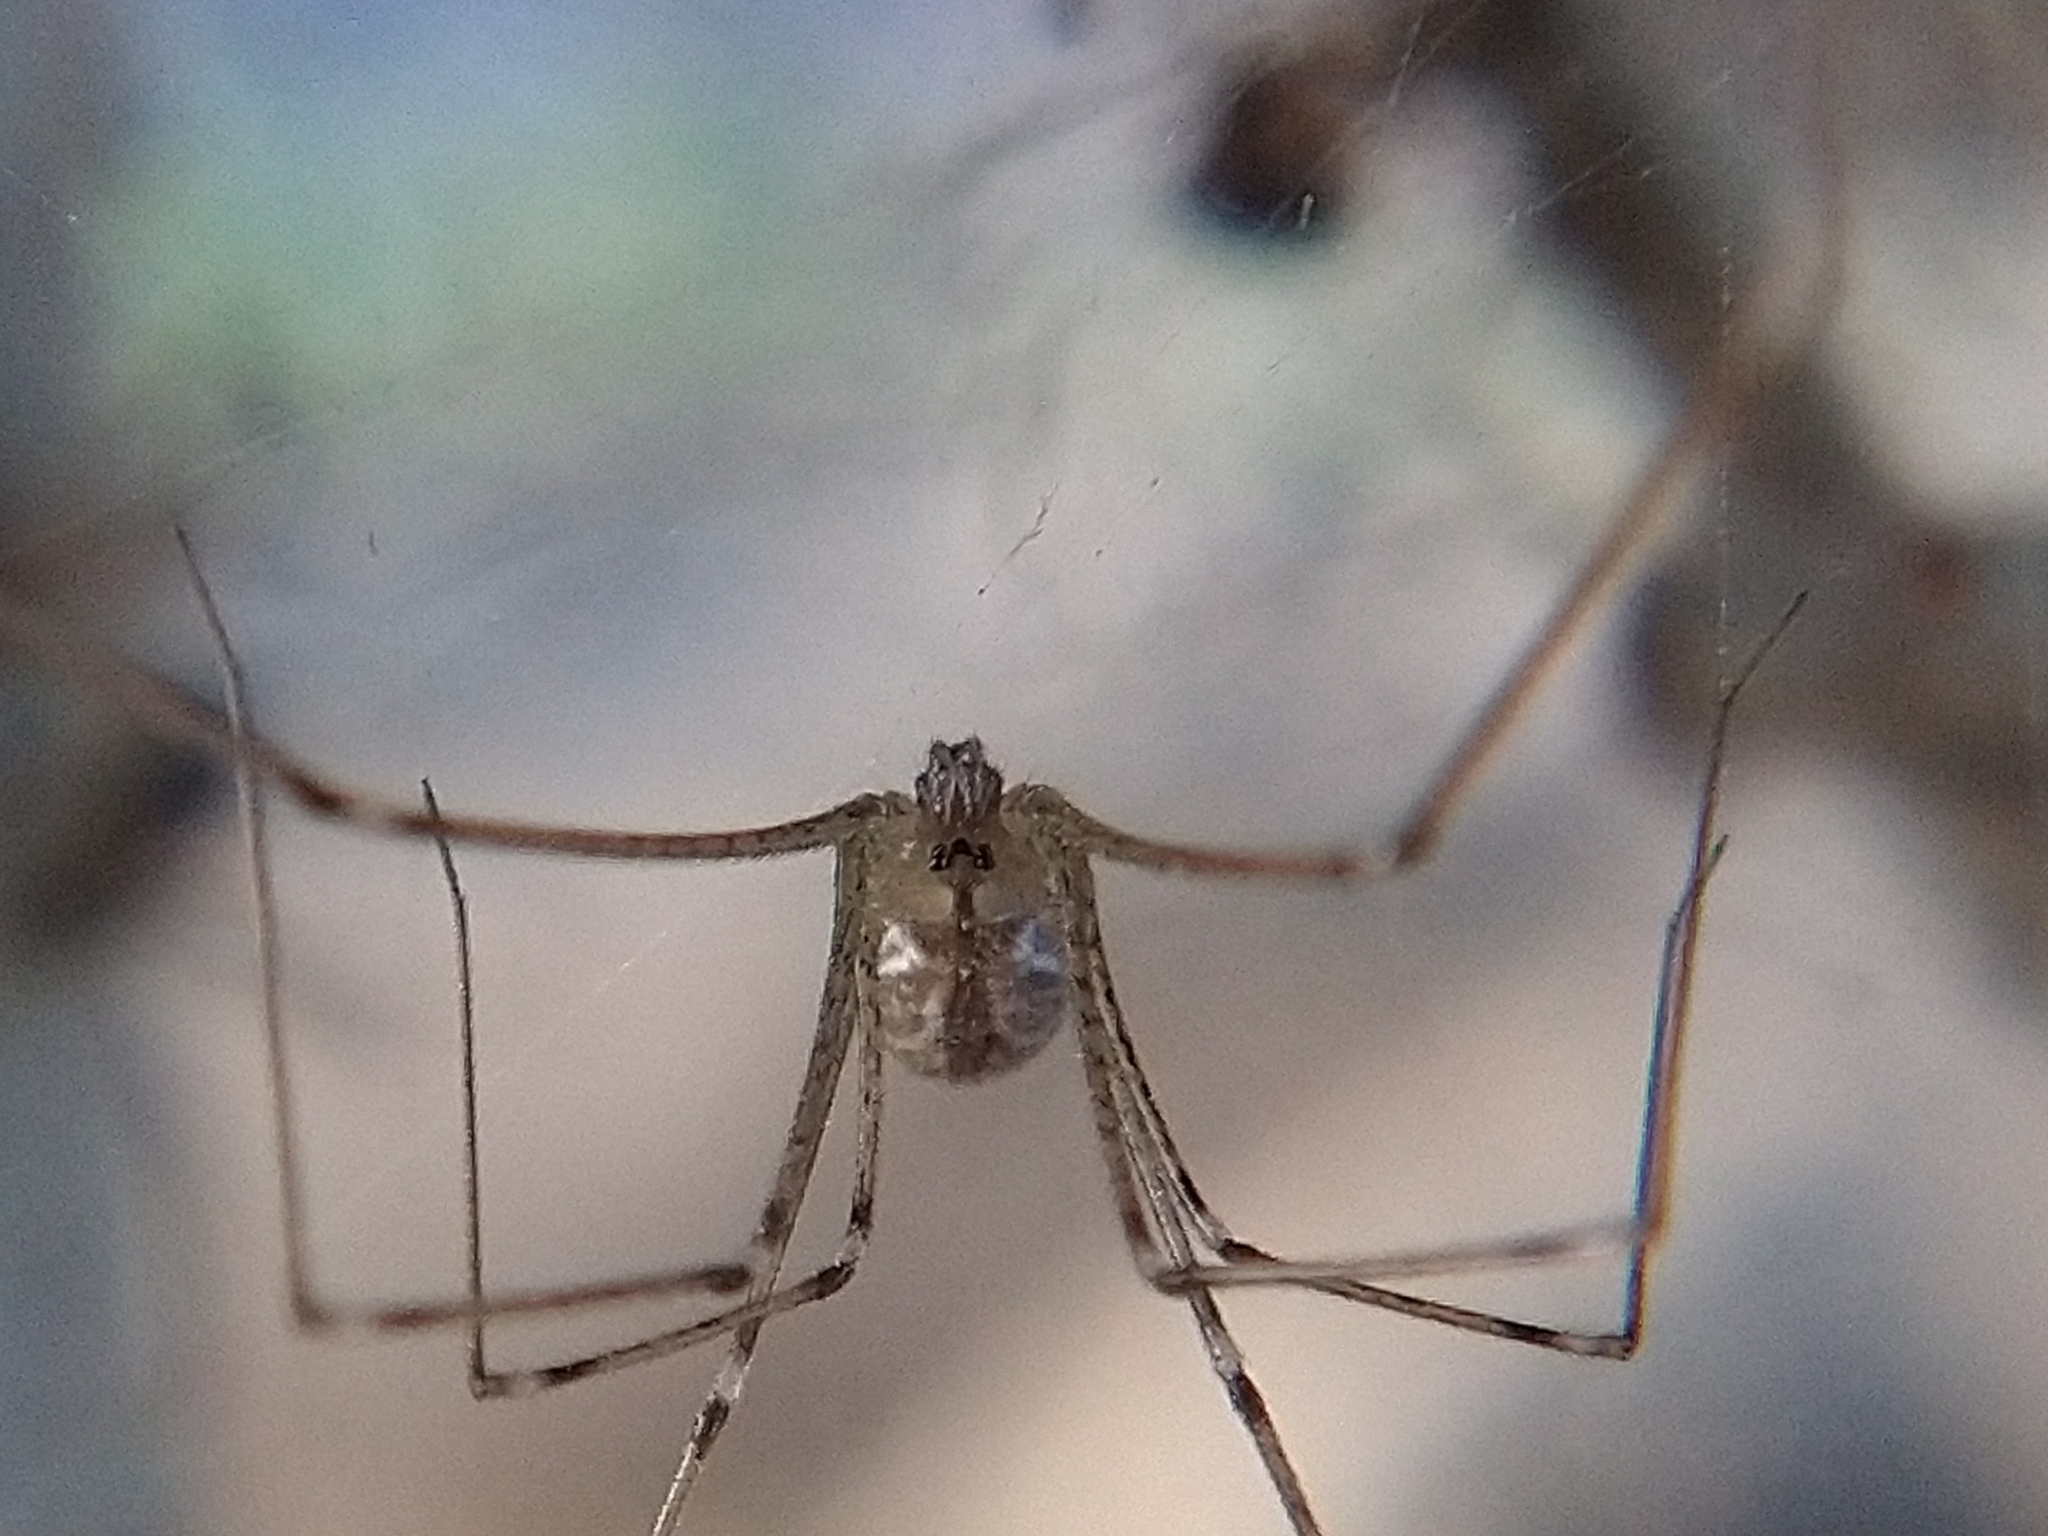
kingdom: Animalia
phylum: Arthropoda
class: Arachnida
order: Araneae
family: Pholcidae
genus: Holocnemus
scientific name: Holocnemus pluchei
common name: Marbled cellar spider
